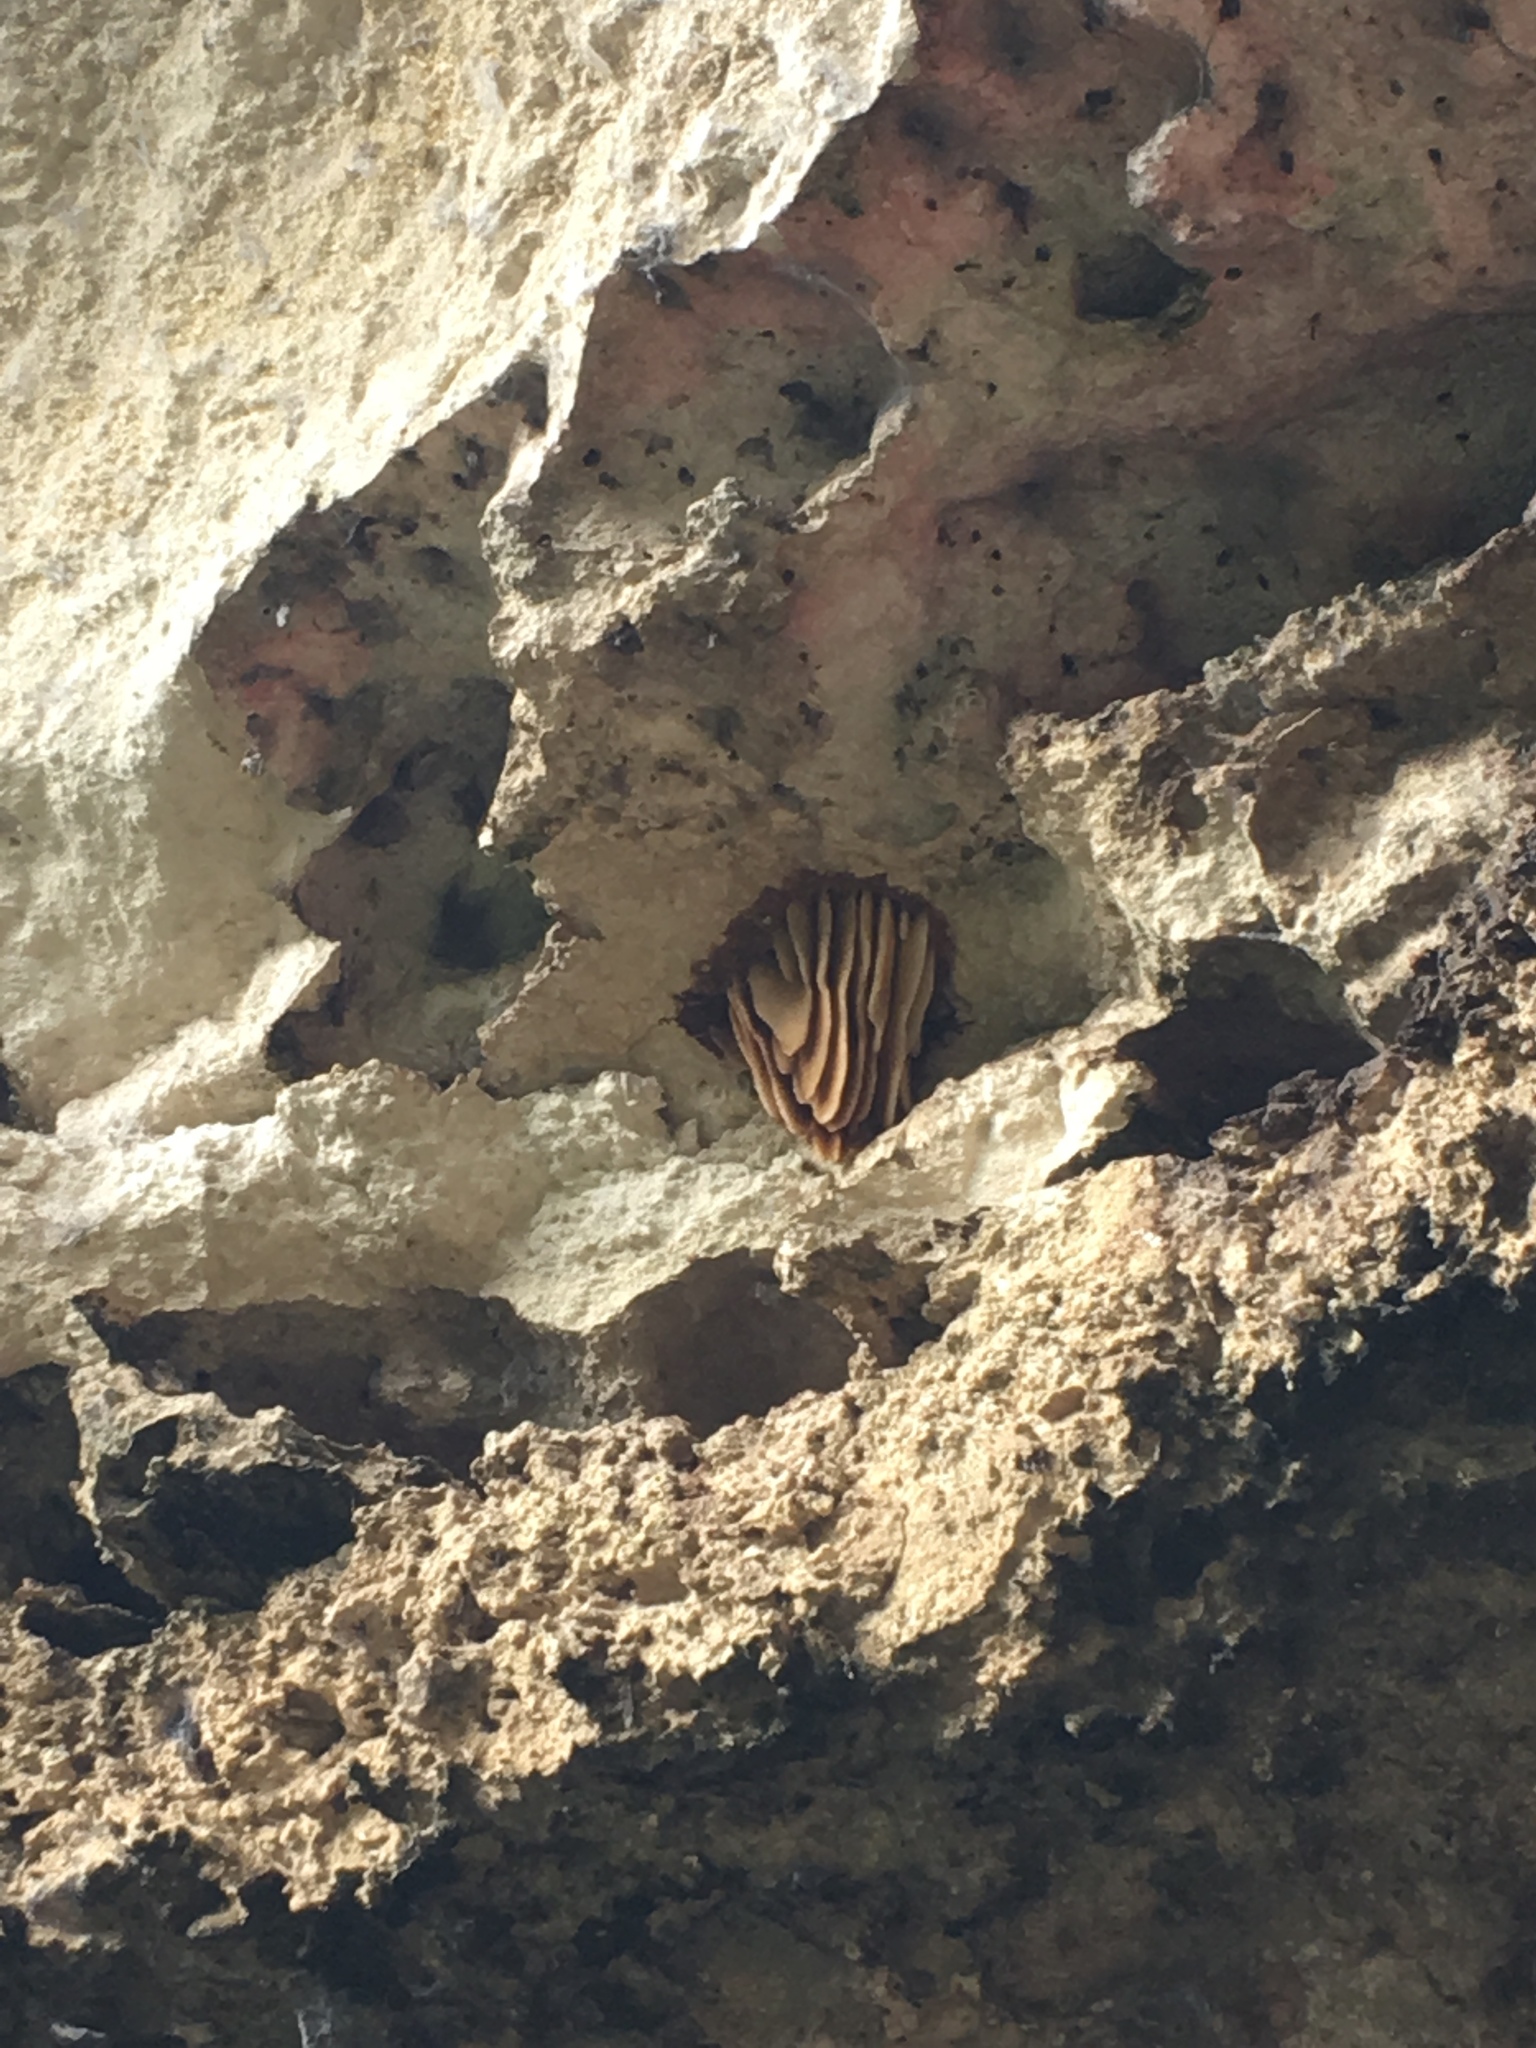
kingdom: Animalia
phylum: Arthropoda
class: Insecta
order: Hymenoptera
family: Apidae
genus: Apis
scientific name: Apis mellifera
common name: Honey bee
